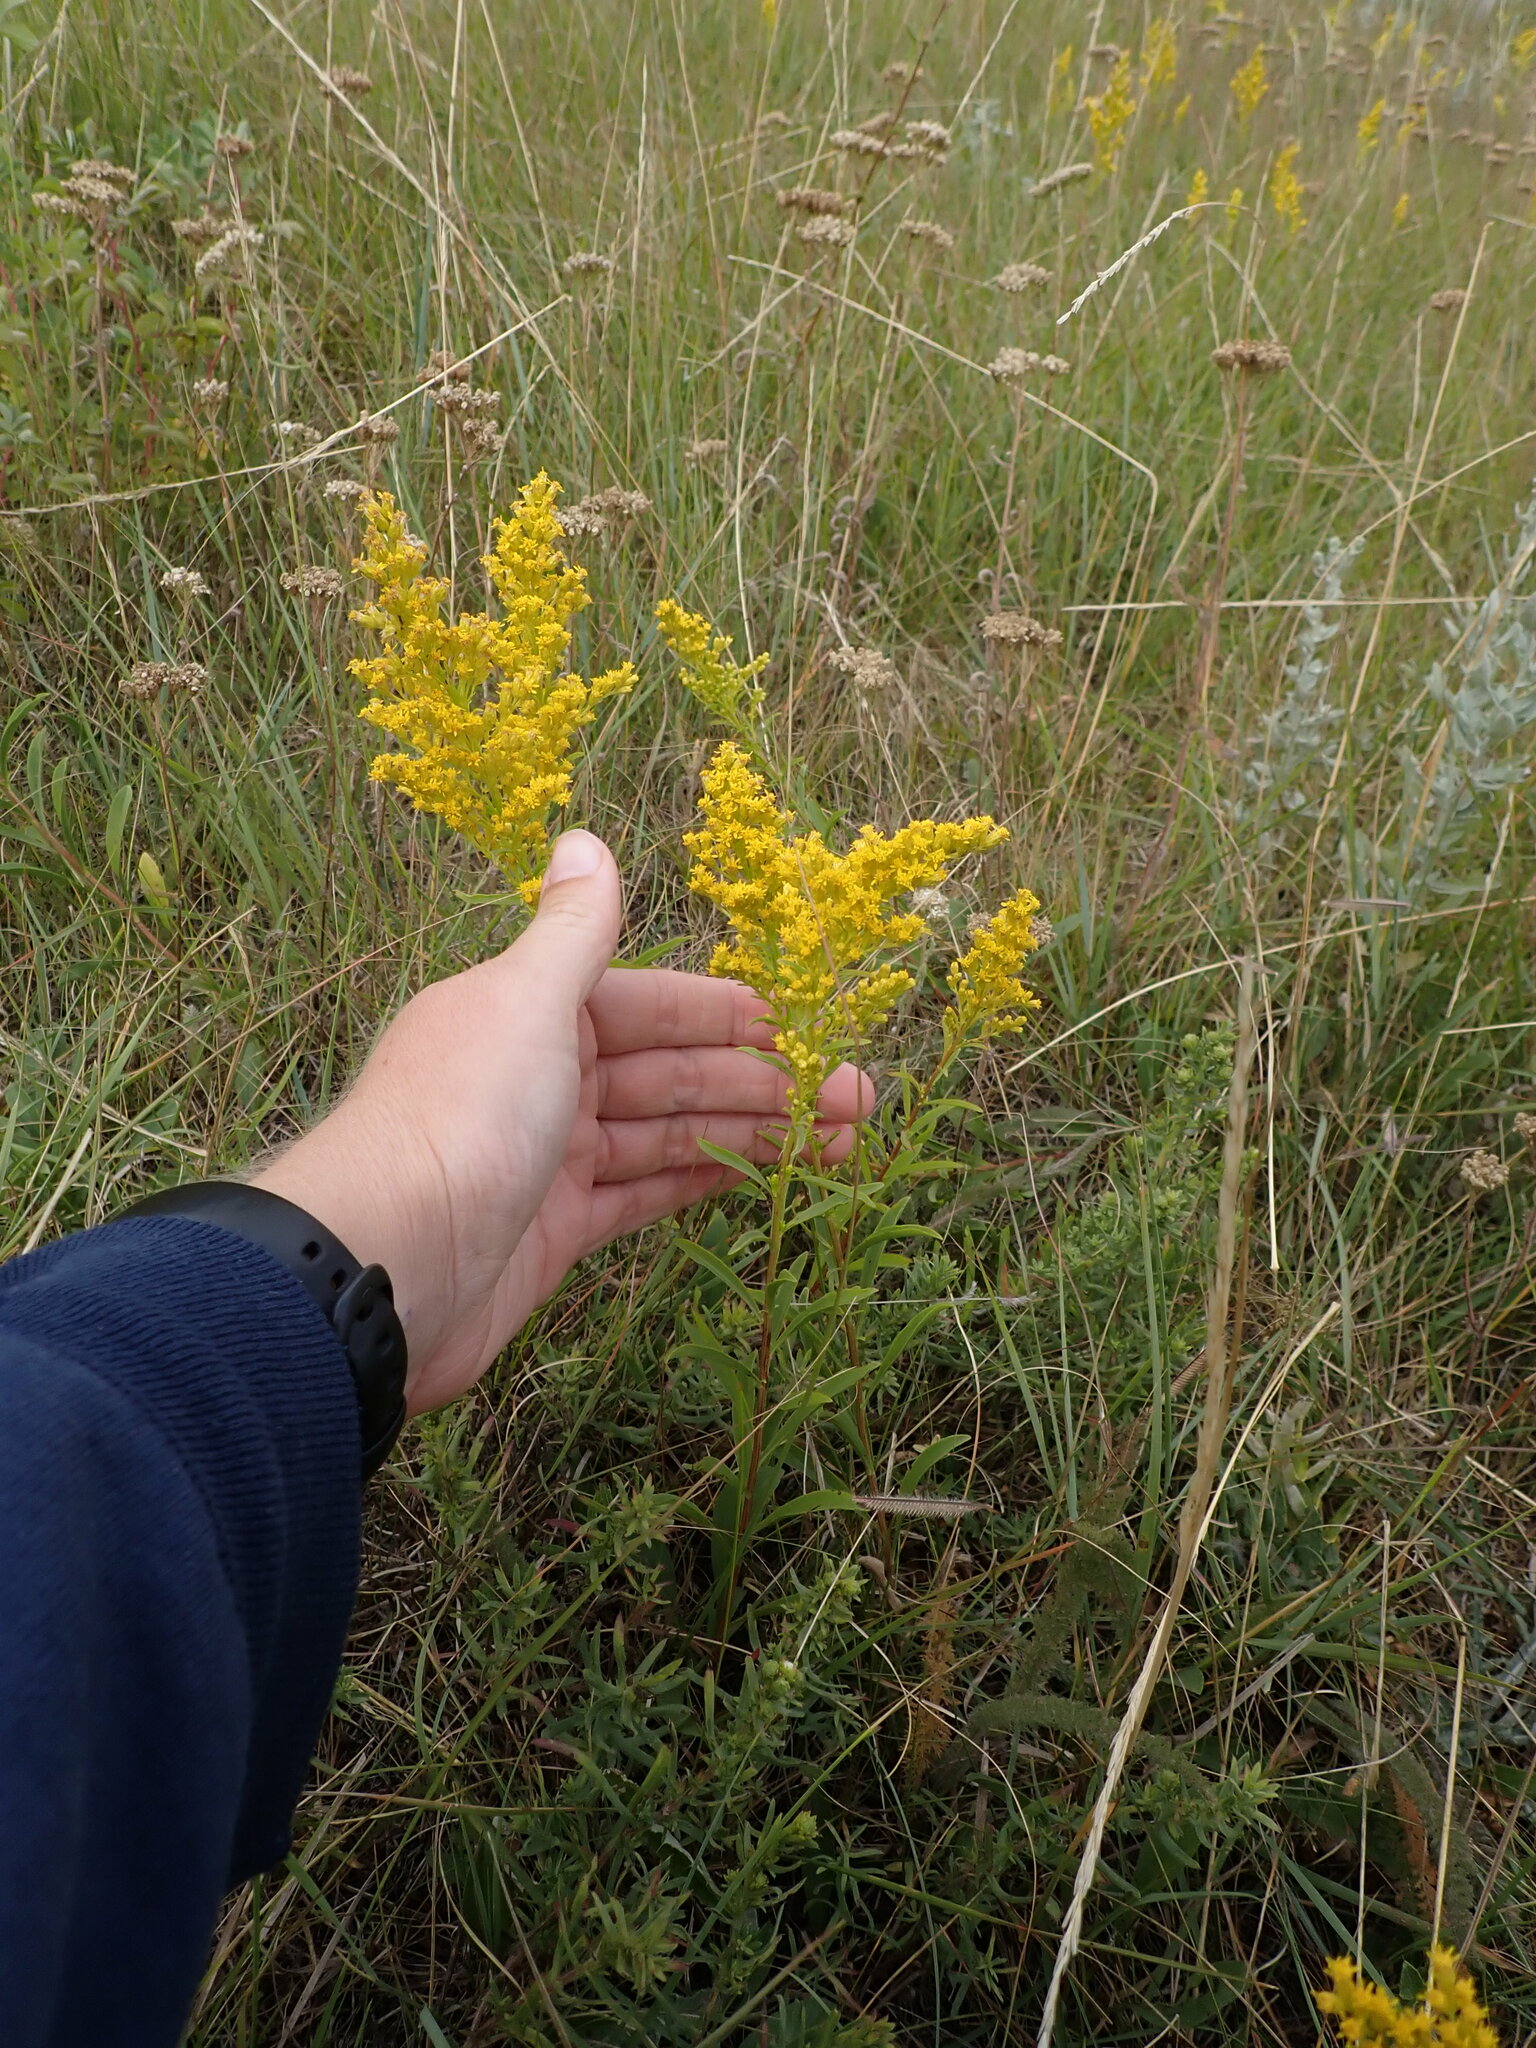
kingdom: Plantae
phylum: Tracheophyta
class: Magnoliopsida
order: Asterales
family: Asteraceae
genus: Solidago
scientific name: Solidago missouriensis
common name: Prairie goldenrod
